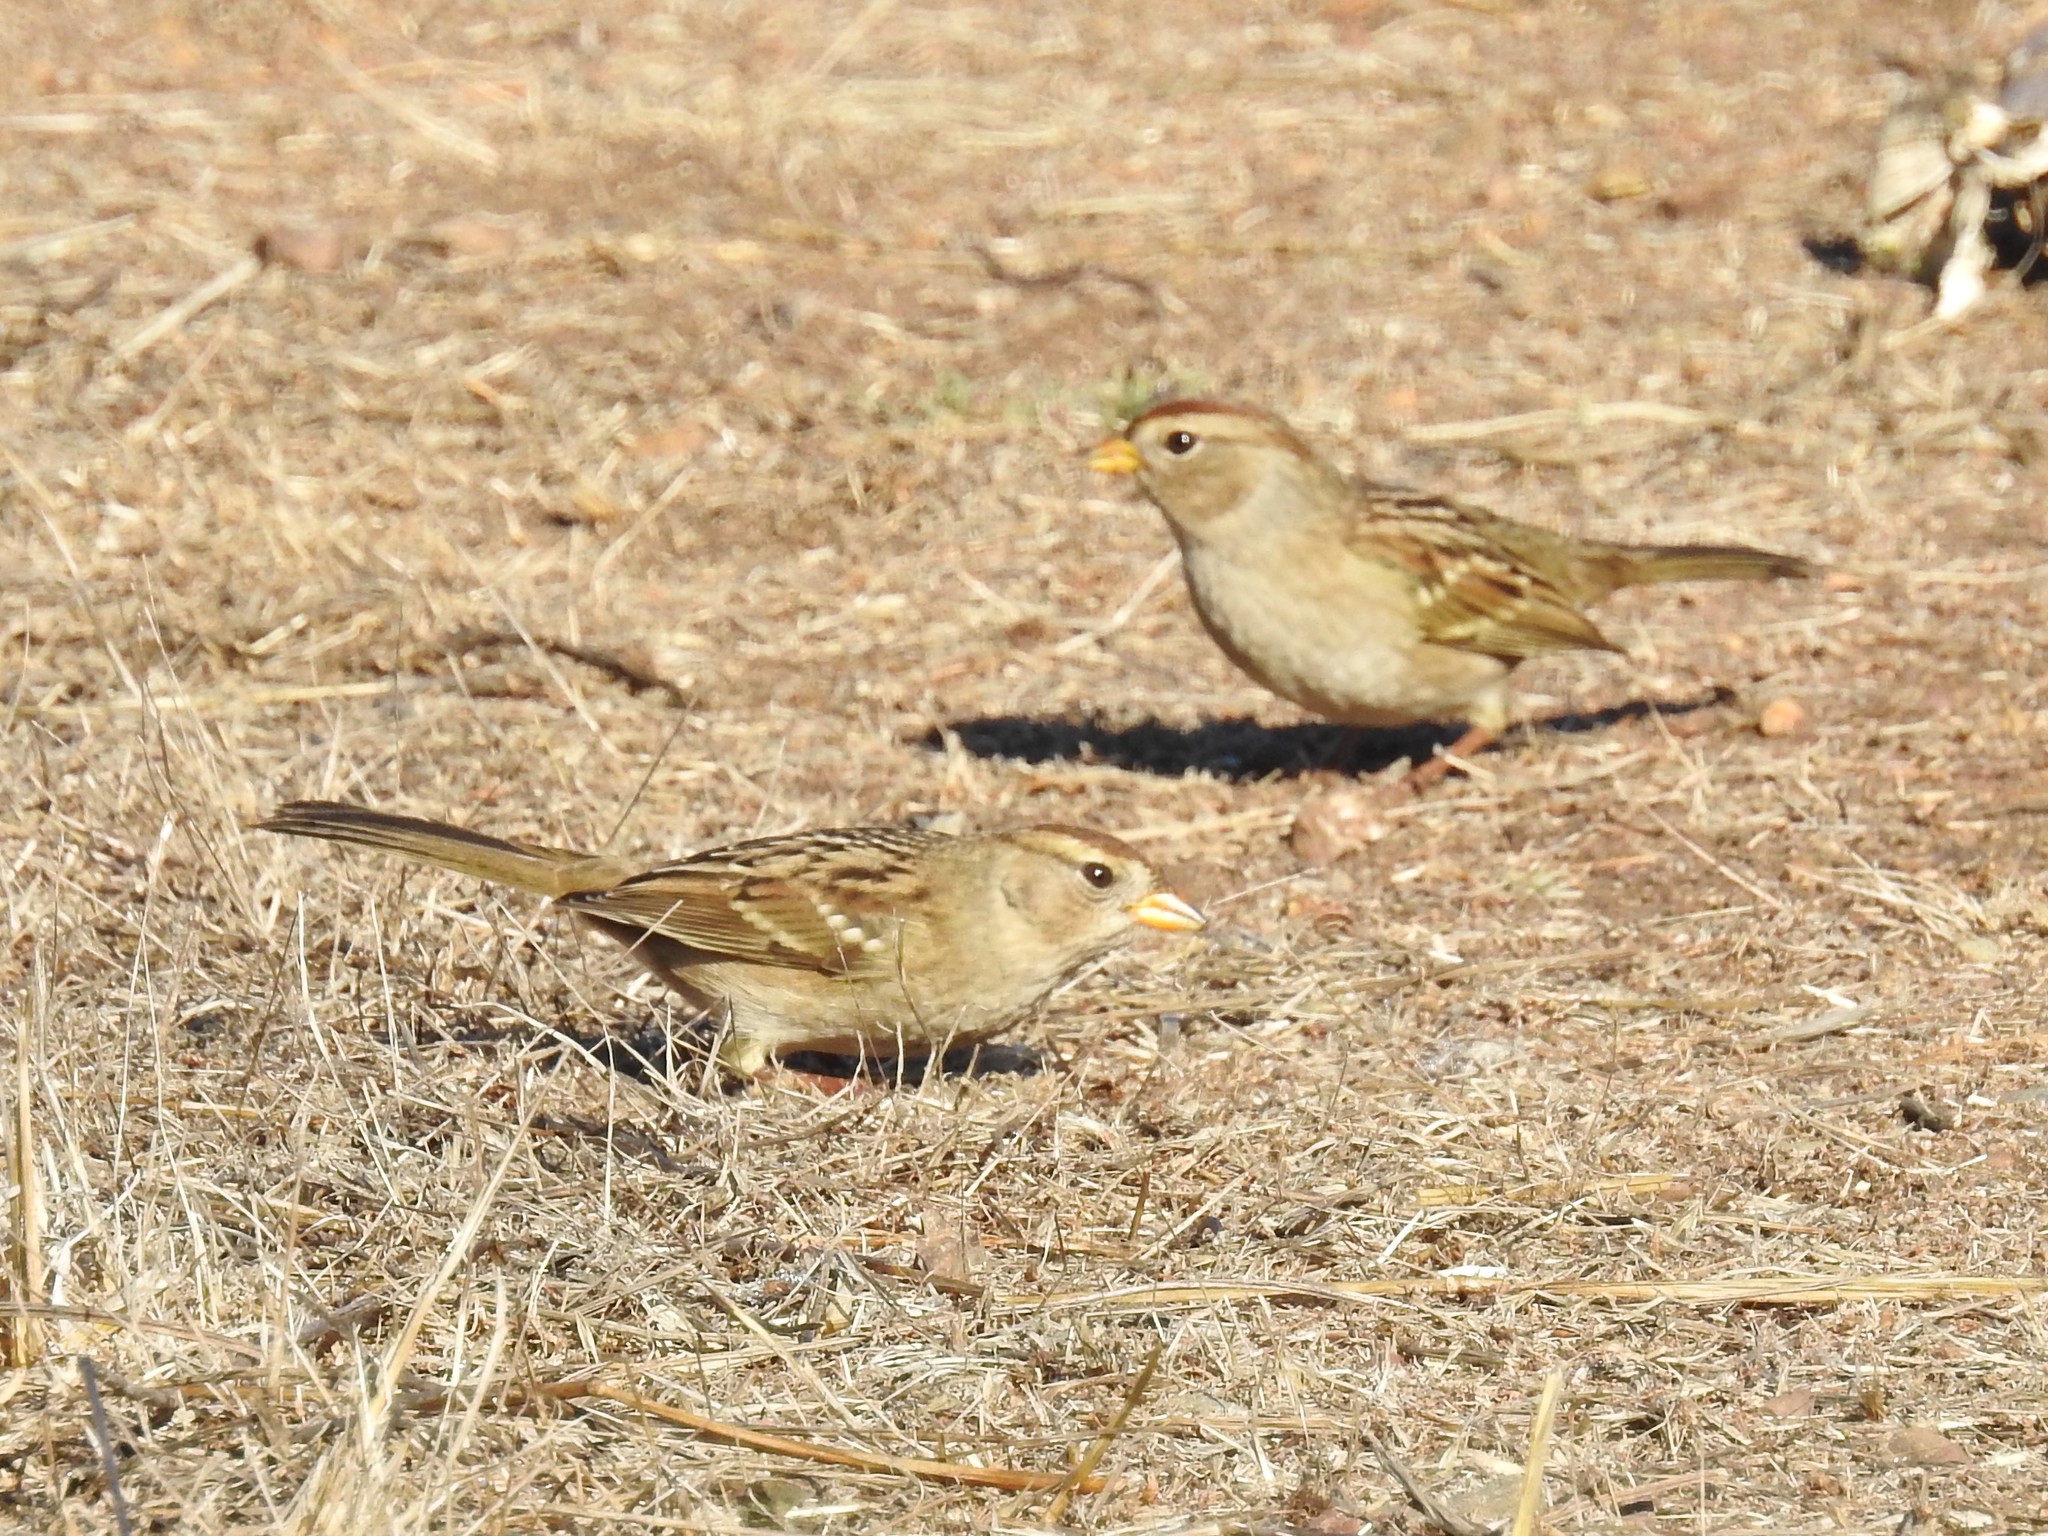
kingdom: Animalia
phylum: Chordata
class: Aves
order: Passeriformes
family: Passerellidae
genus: Zonotrichia
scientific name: Zonotrichia leucophrys
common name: White-crowned sparrow
